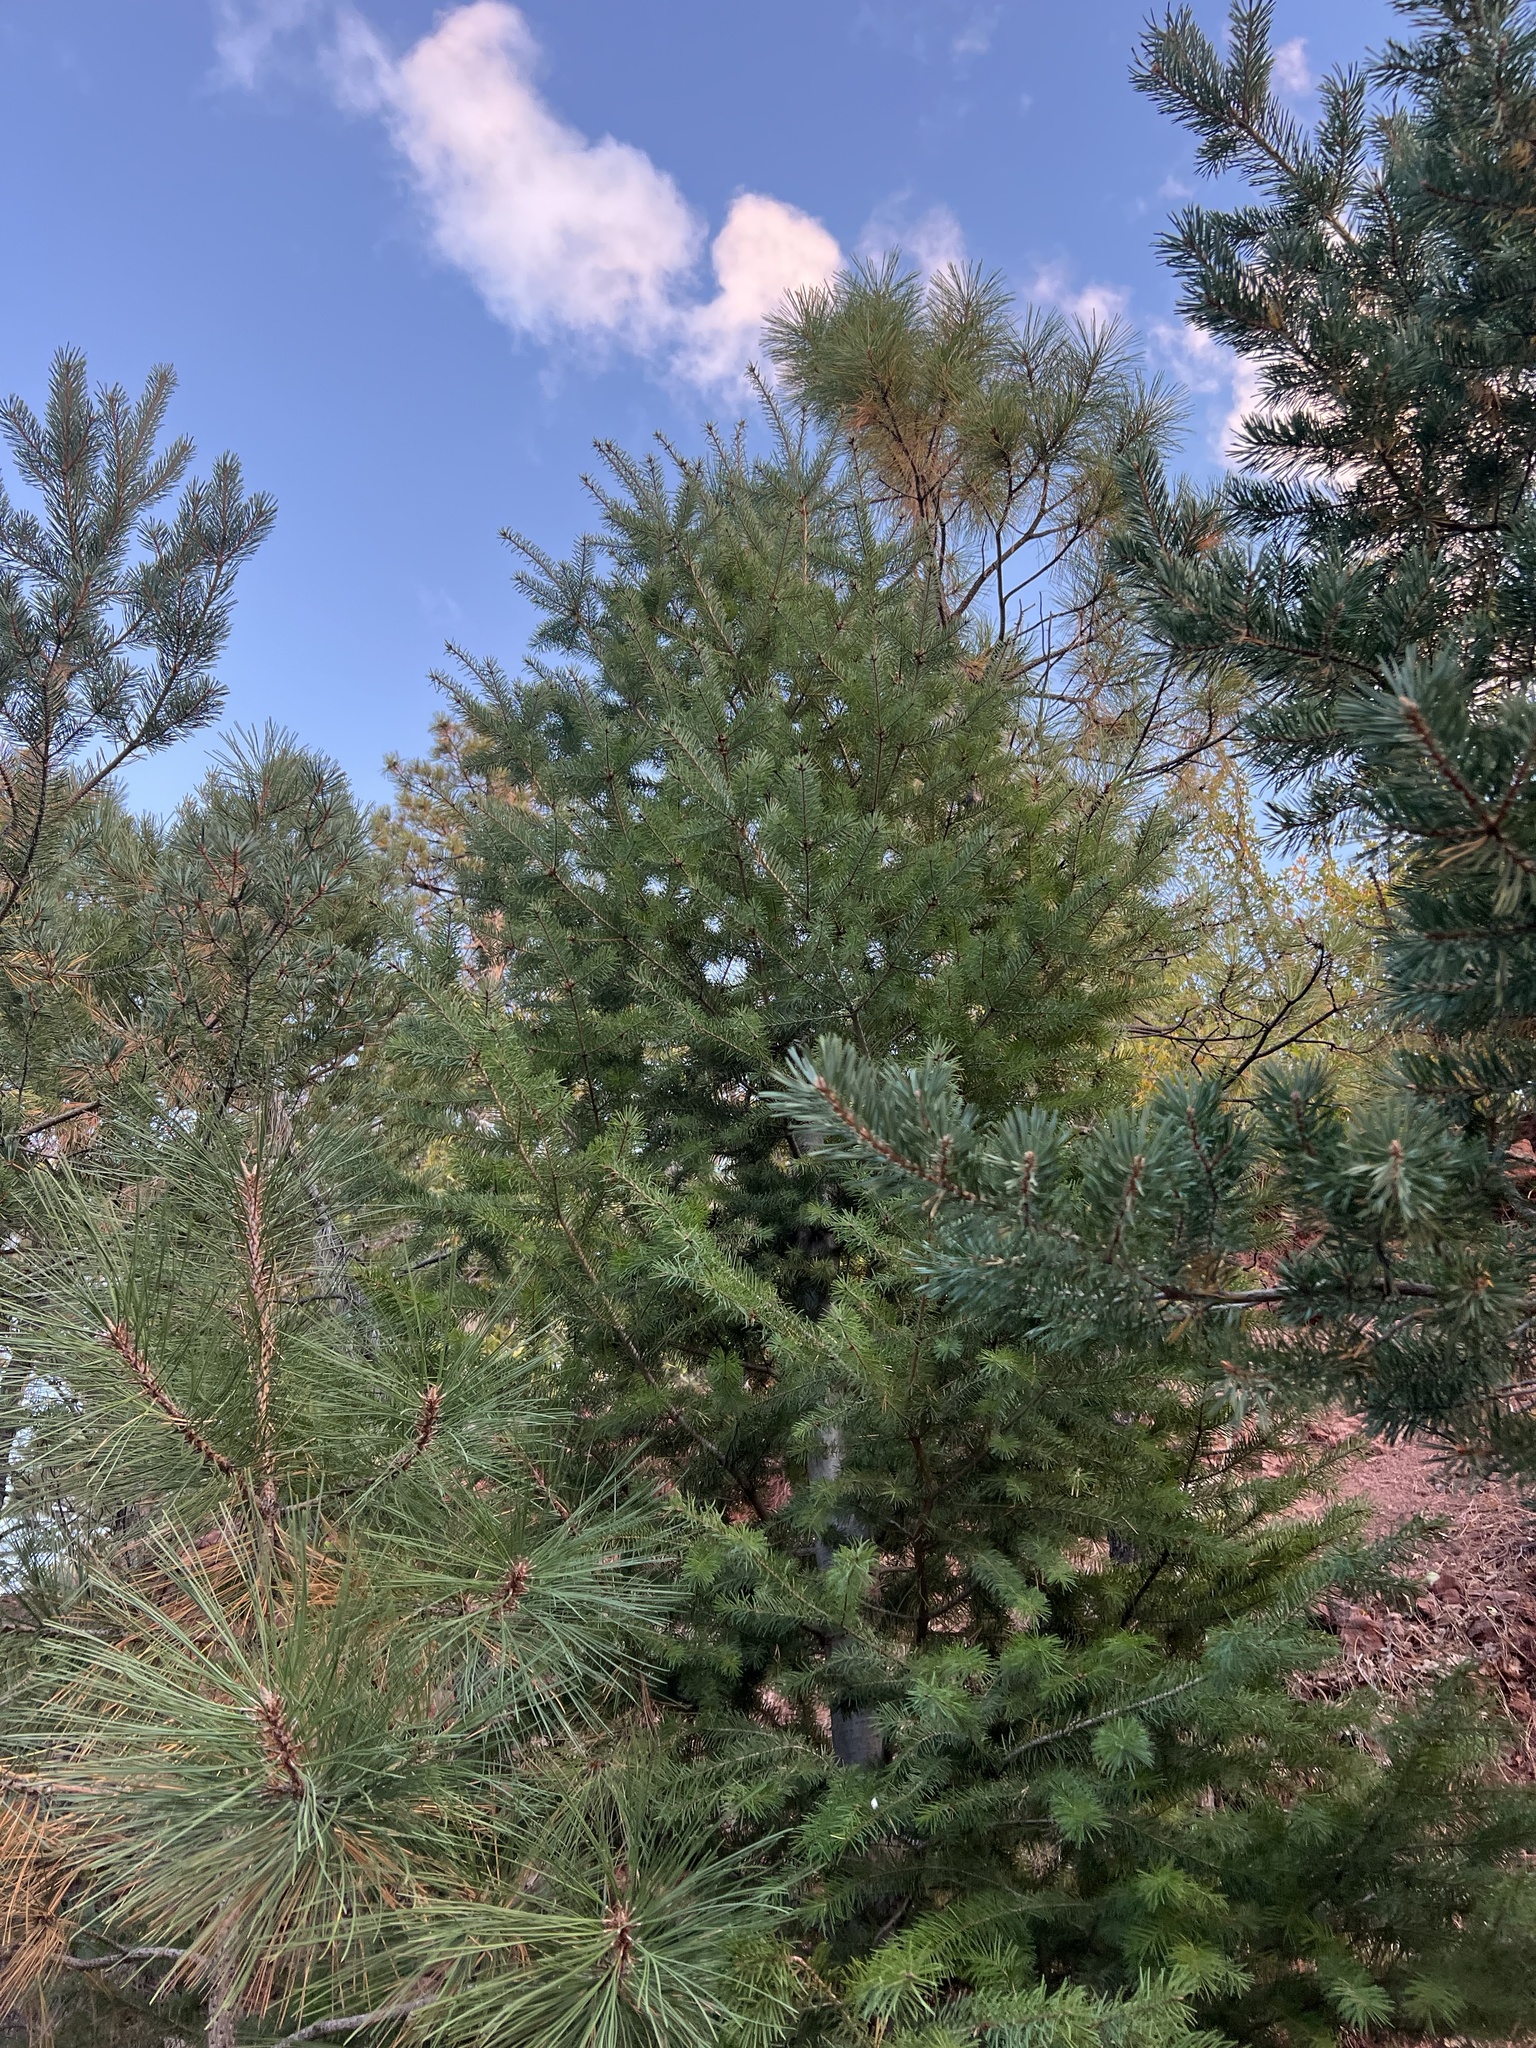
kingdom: Plantae
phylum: Tracheophyta
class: Pinopsida
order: Pinales
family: Pinaceae
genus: Pseudotsuga
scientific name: Pseudotsuga menziesii
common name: Douglas fir
